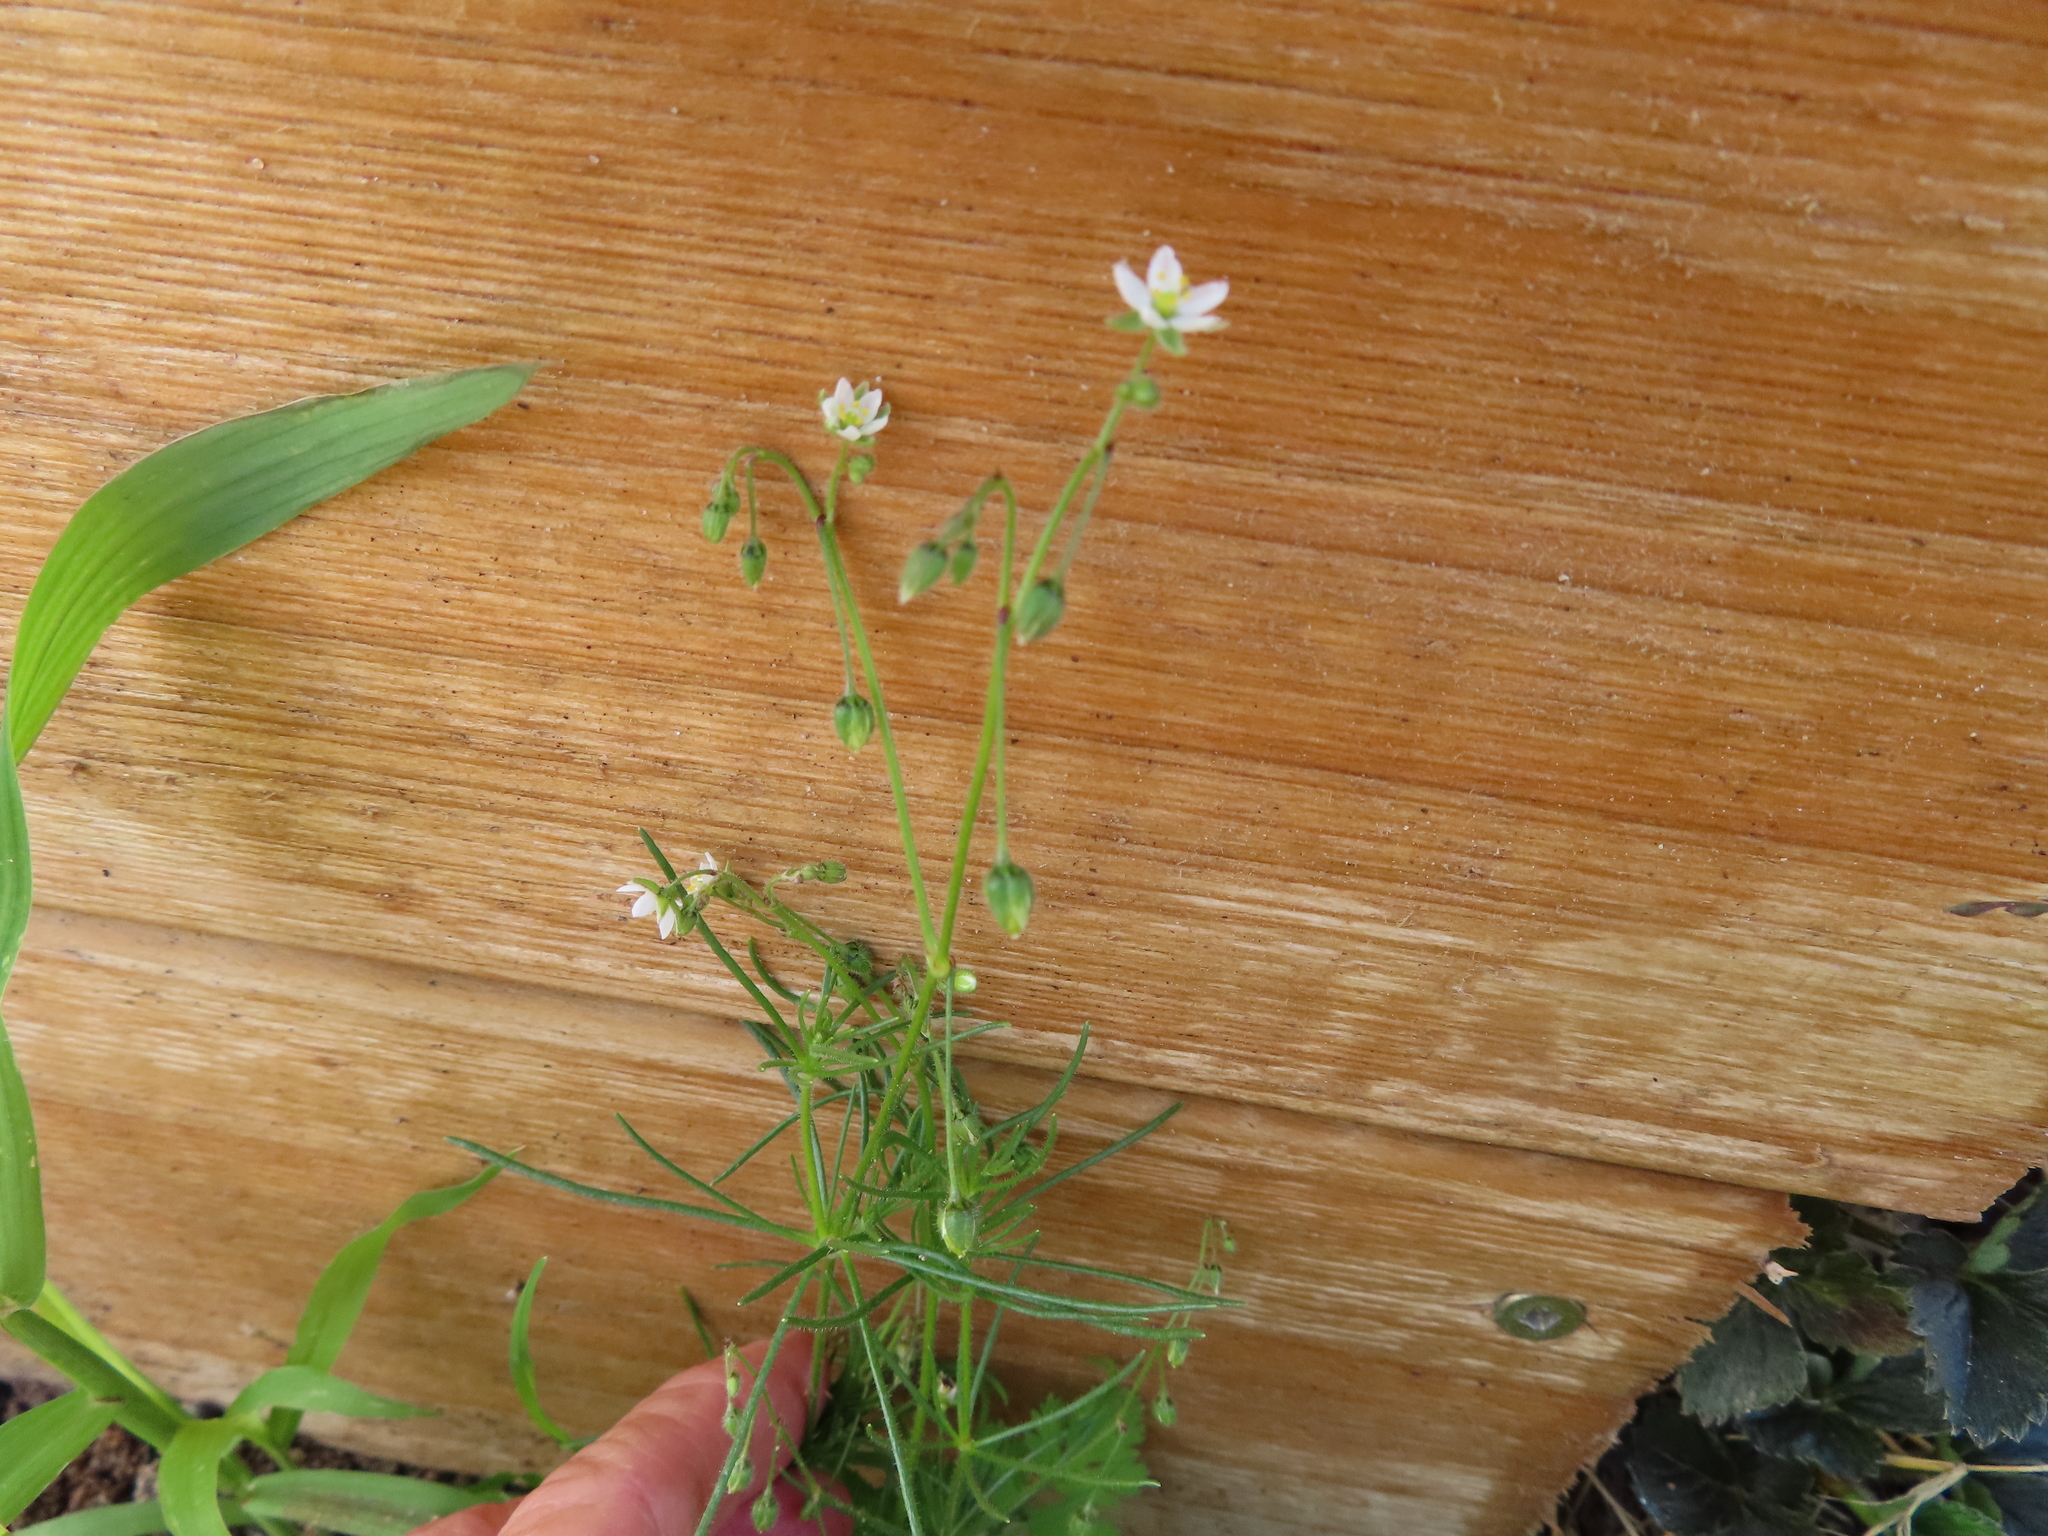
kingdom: Plantae
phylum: Tracheophyta
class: Magnoliopsida
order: Caryophyllales
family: Caryophyllaceae
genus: Spergula
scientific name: Spergula arvensis
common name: Corn spurrey
